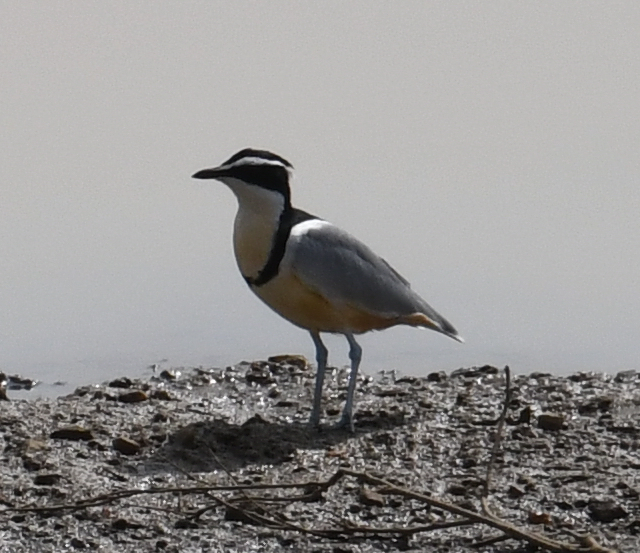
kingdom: Animalia
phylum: Chordata
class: Aves
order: Charadriiformes
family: Pluvianidae
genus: Pluvianus
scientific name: Pluvianus aegyptius
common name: Egyptian plover
